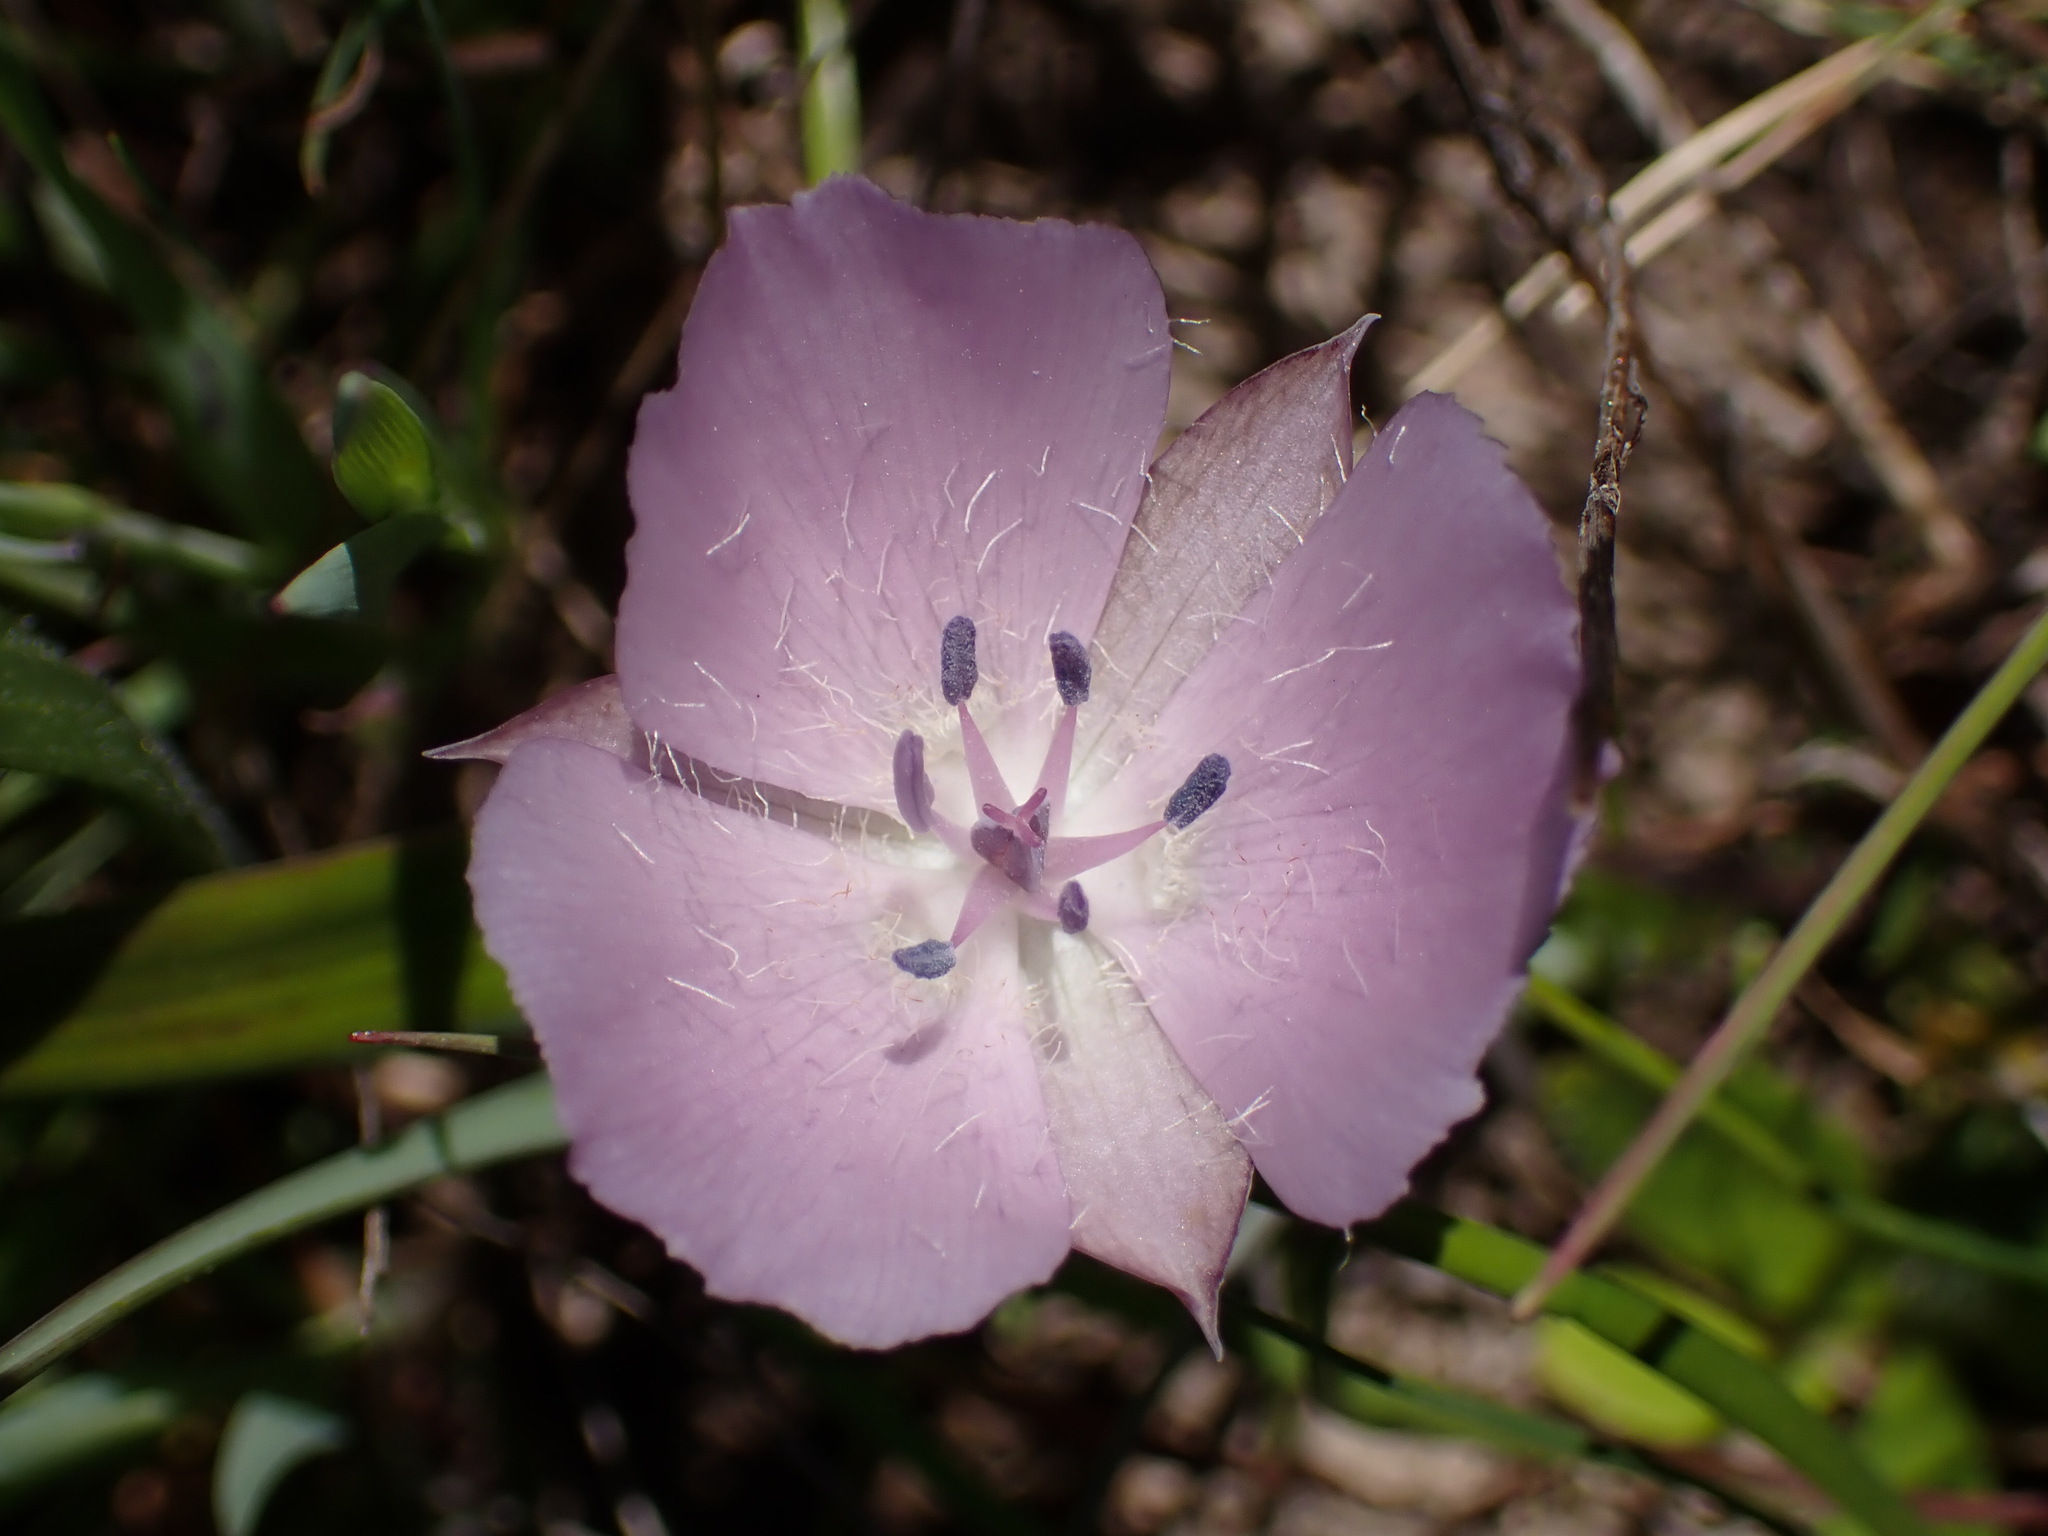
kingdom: Plantae
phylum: Tracheophyta
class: Liliopsida
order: Liliales
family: Liliaceae
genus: Calochortus
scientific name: Calochortus uniflorus
